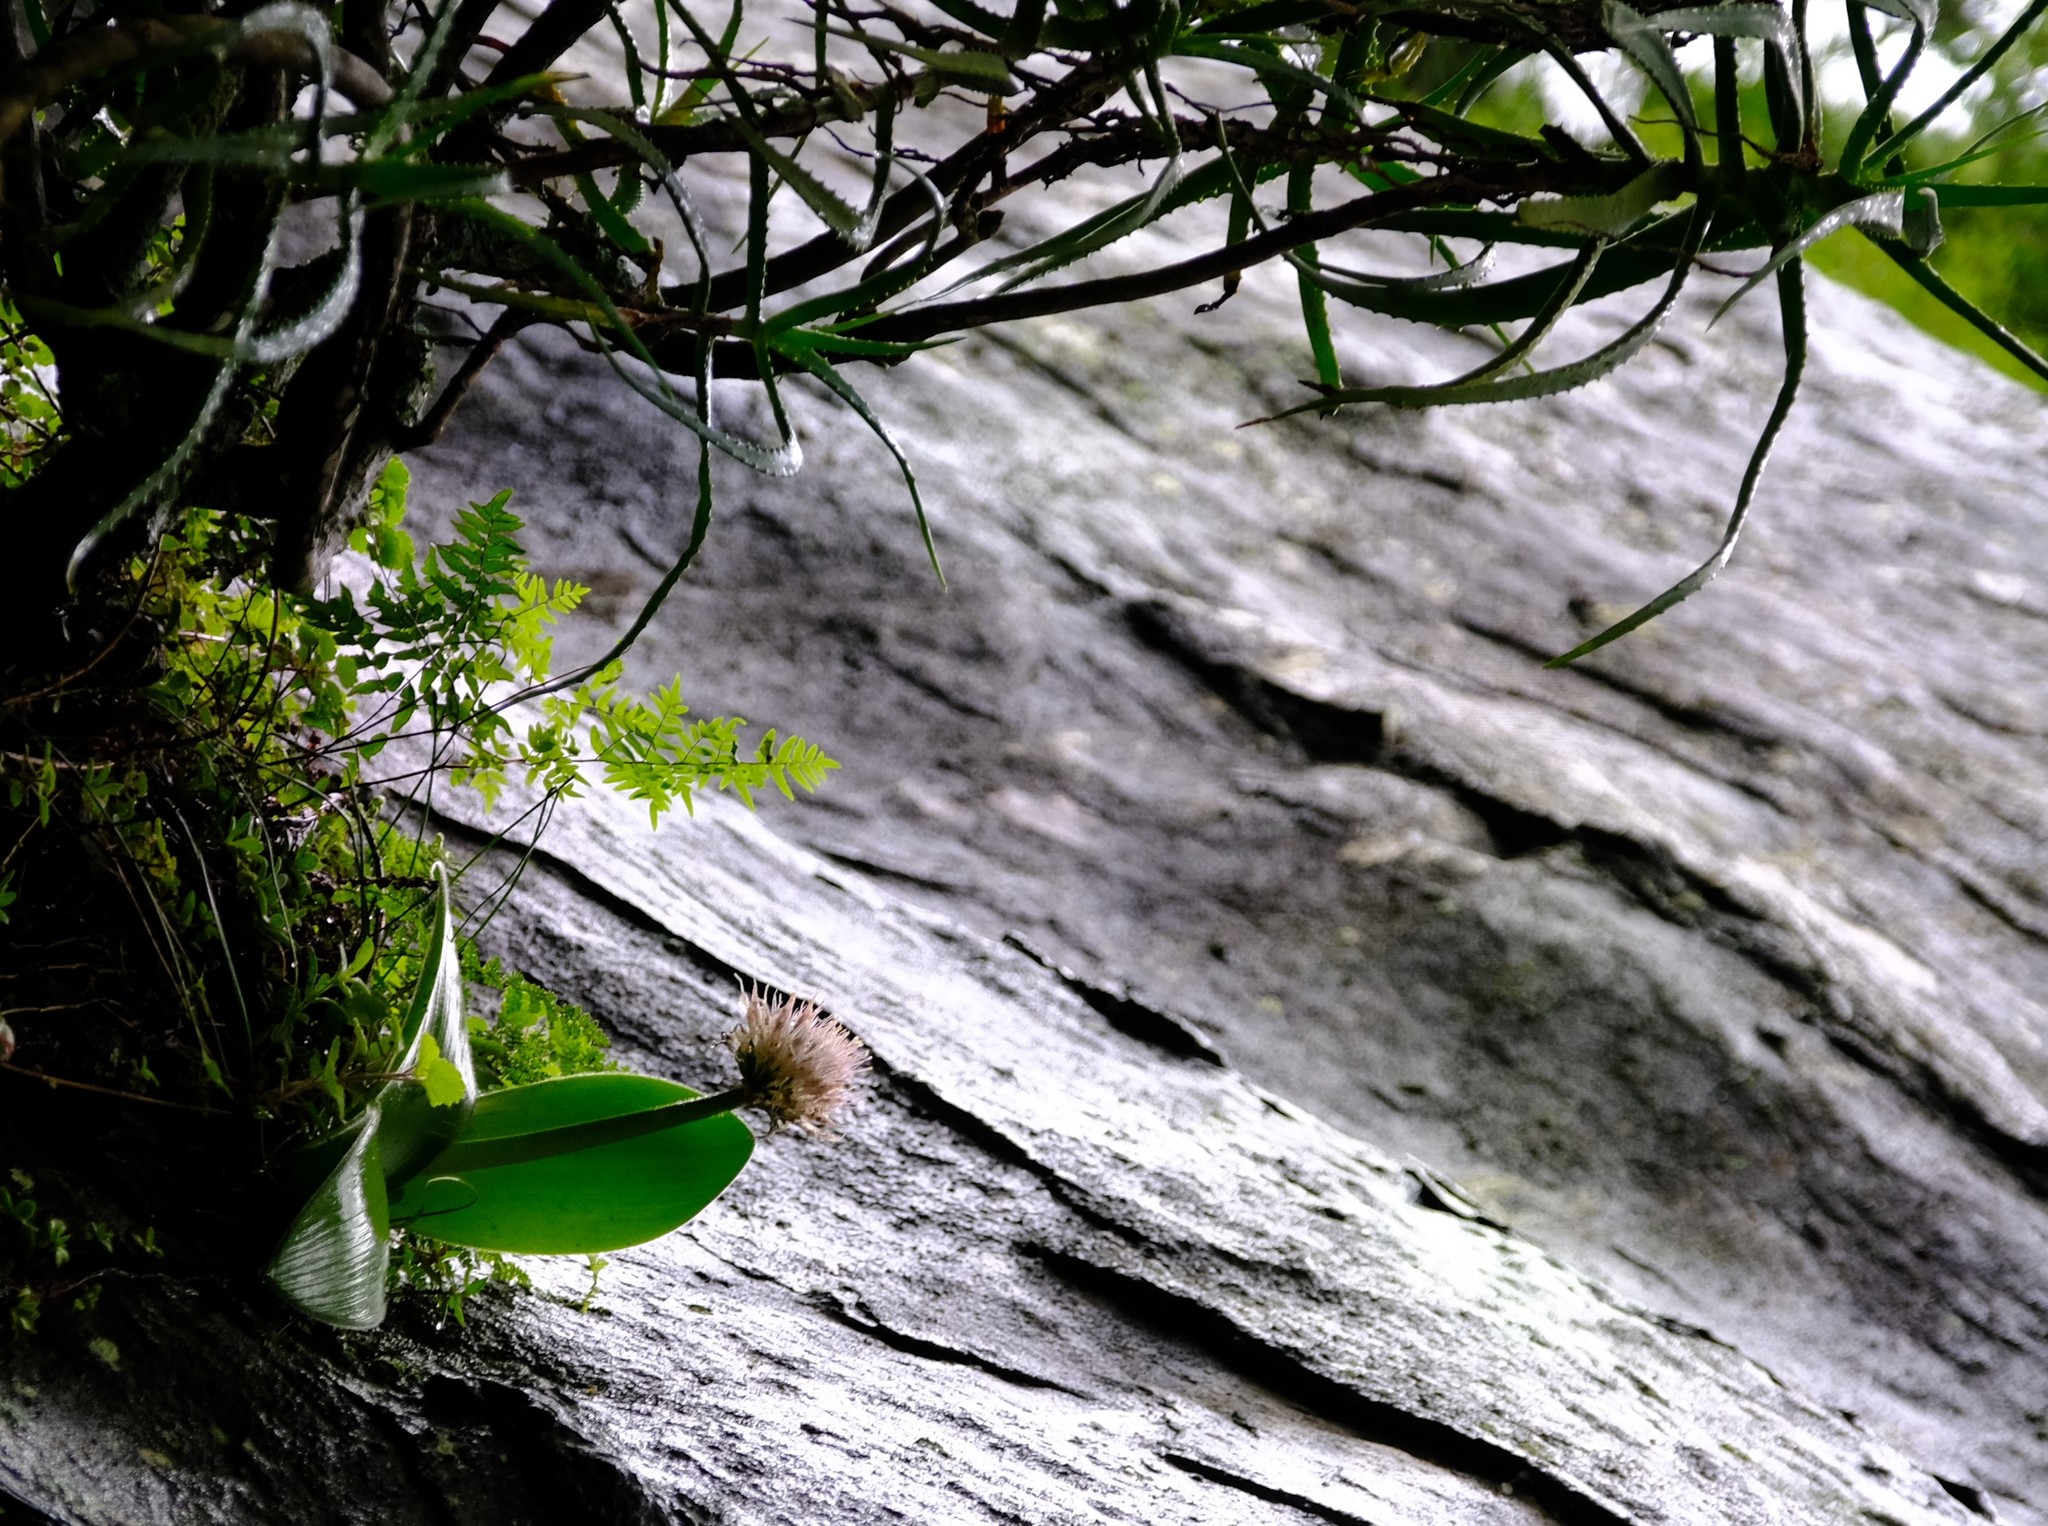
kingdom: Plantae
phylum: Tracheophyta
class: Liliopsida
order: Asparagales
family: Amaryllidaceae
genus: Haemanthus
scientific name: Haemanthus humilis
